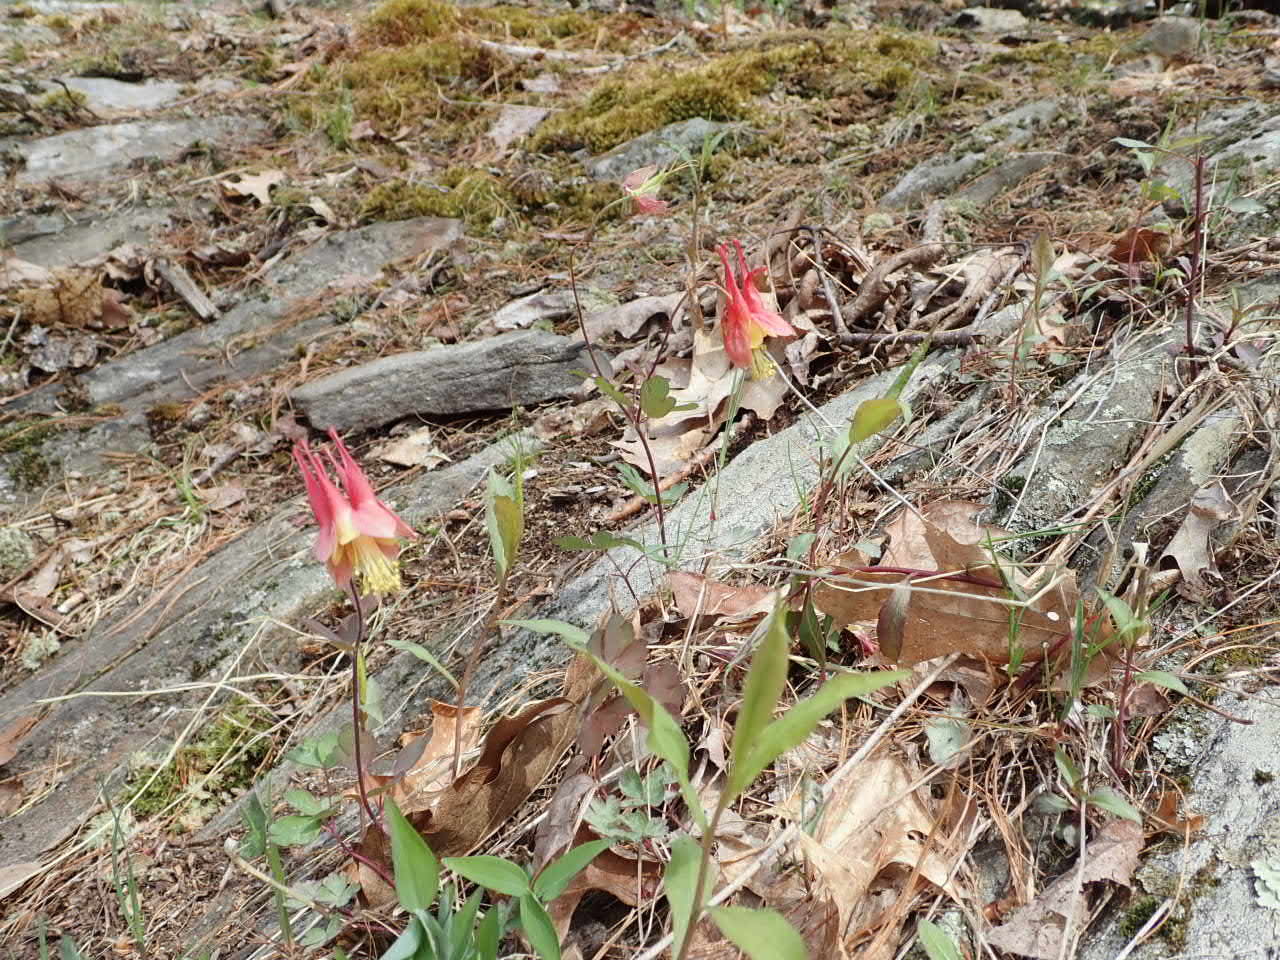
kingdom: Plantae
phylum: Tracheophyta
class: Magnoliopsida
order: Ranunculales
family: Ranunculaceae
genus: Aquilegia
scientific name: Aquilegia canadensis
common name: American columbine
